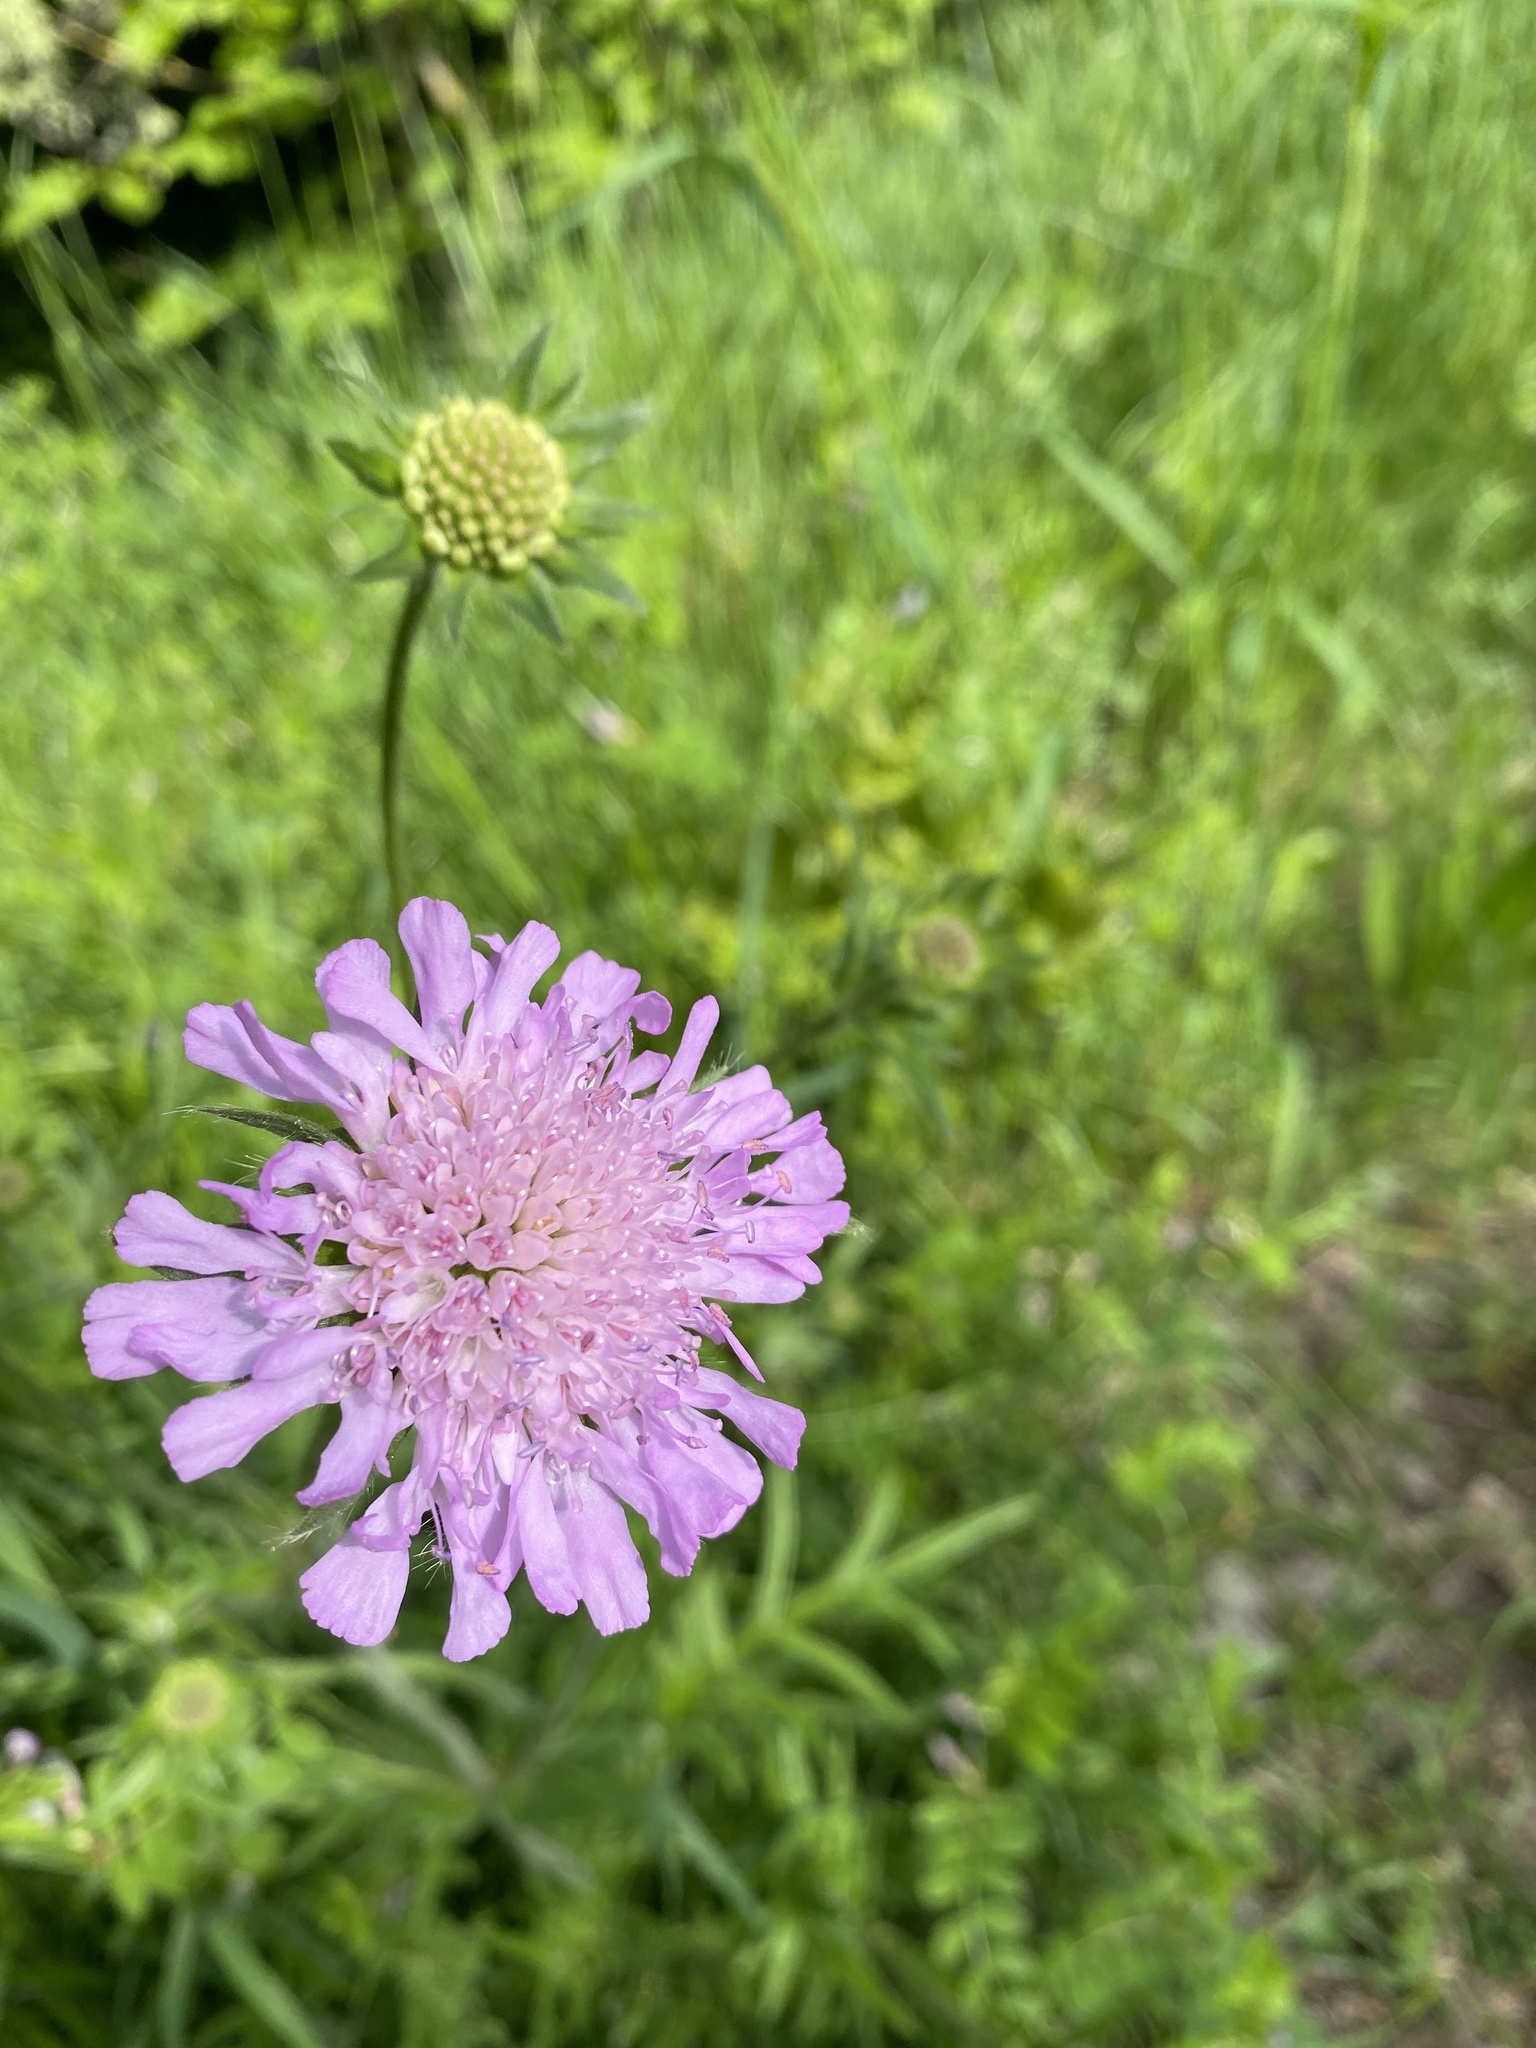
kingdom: Plantae
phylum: Tracheophyta
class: Magnoliopsida
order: Dipsacales
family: Caprifoliaceae
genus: Knautia
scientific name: Knautia arvensis
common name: Field scabiosa
